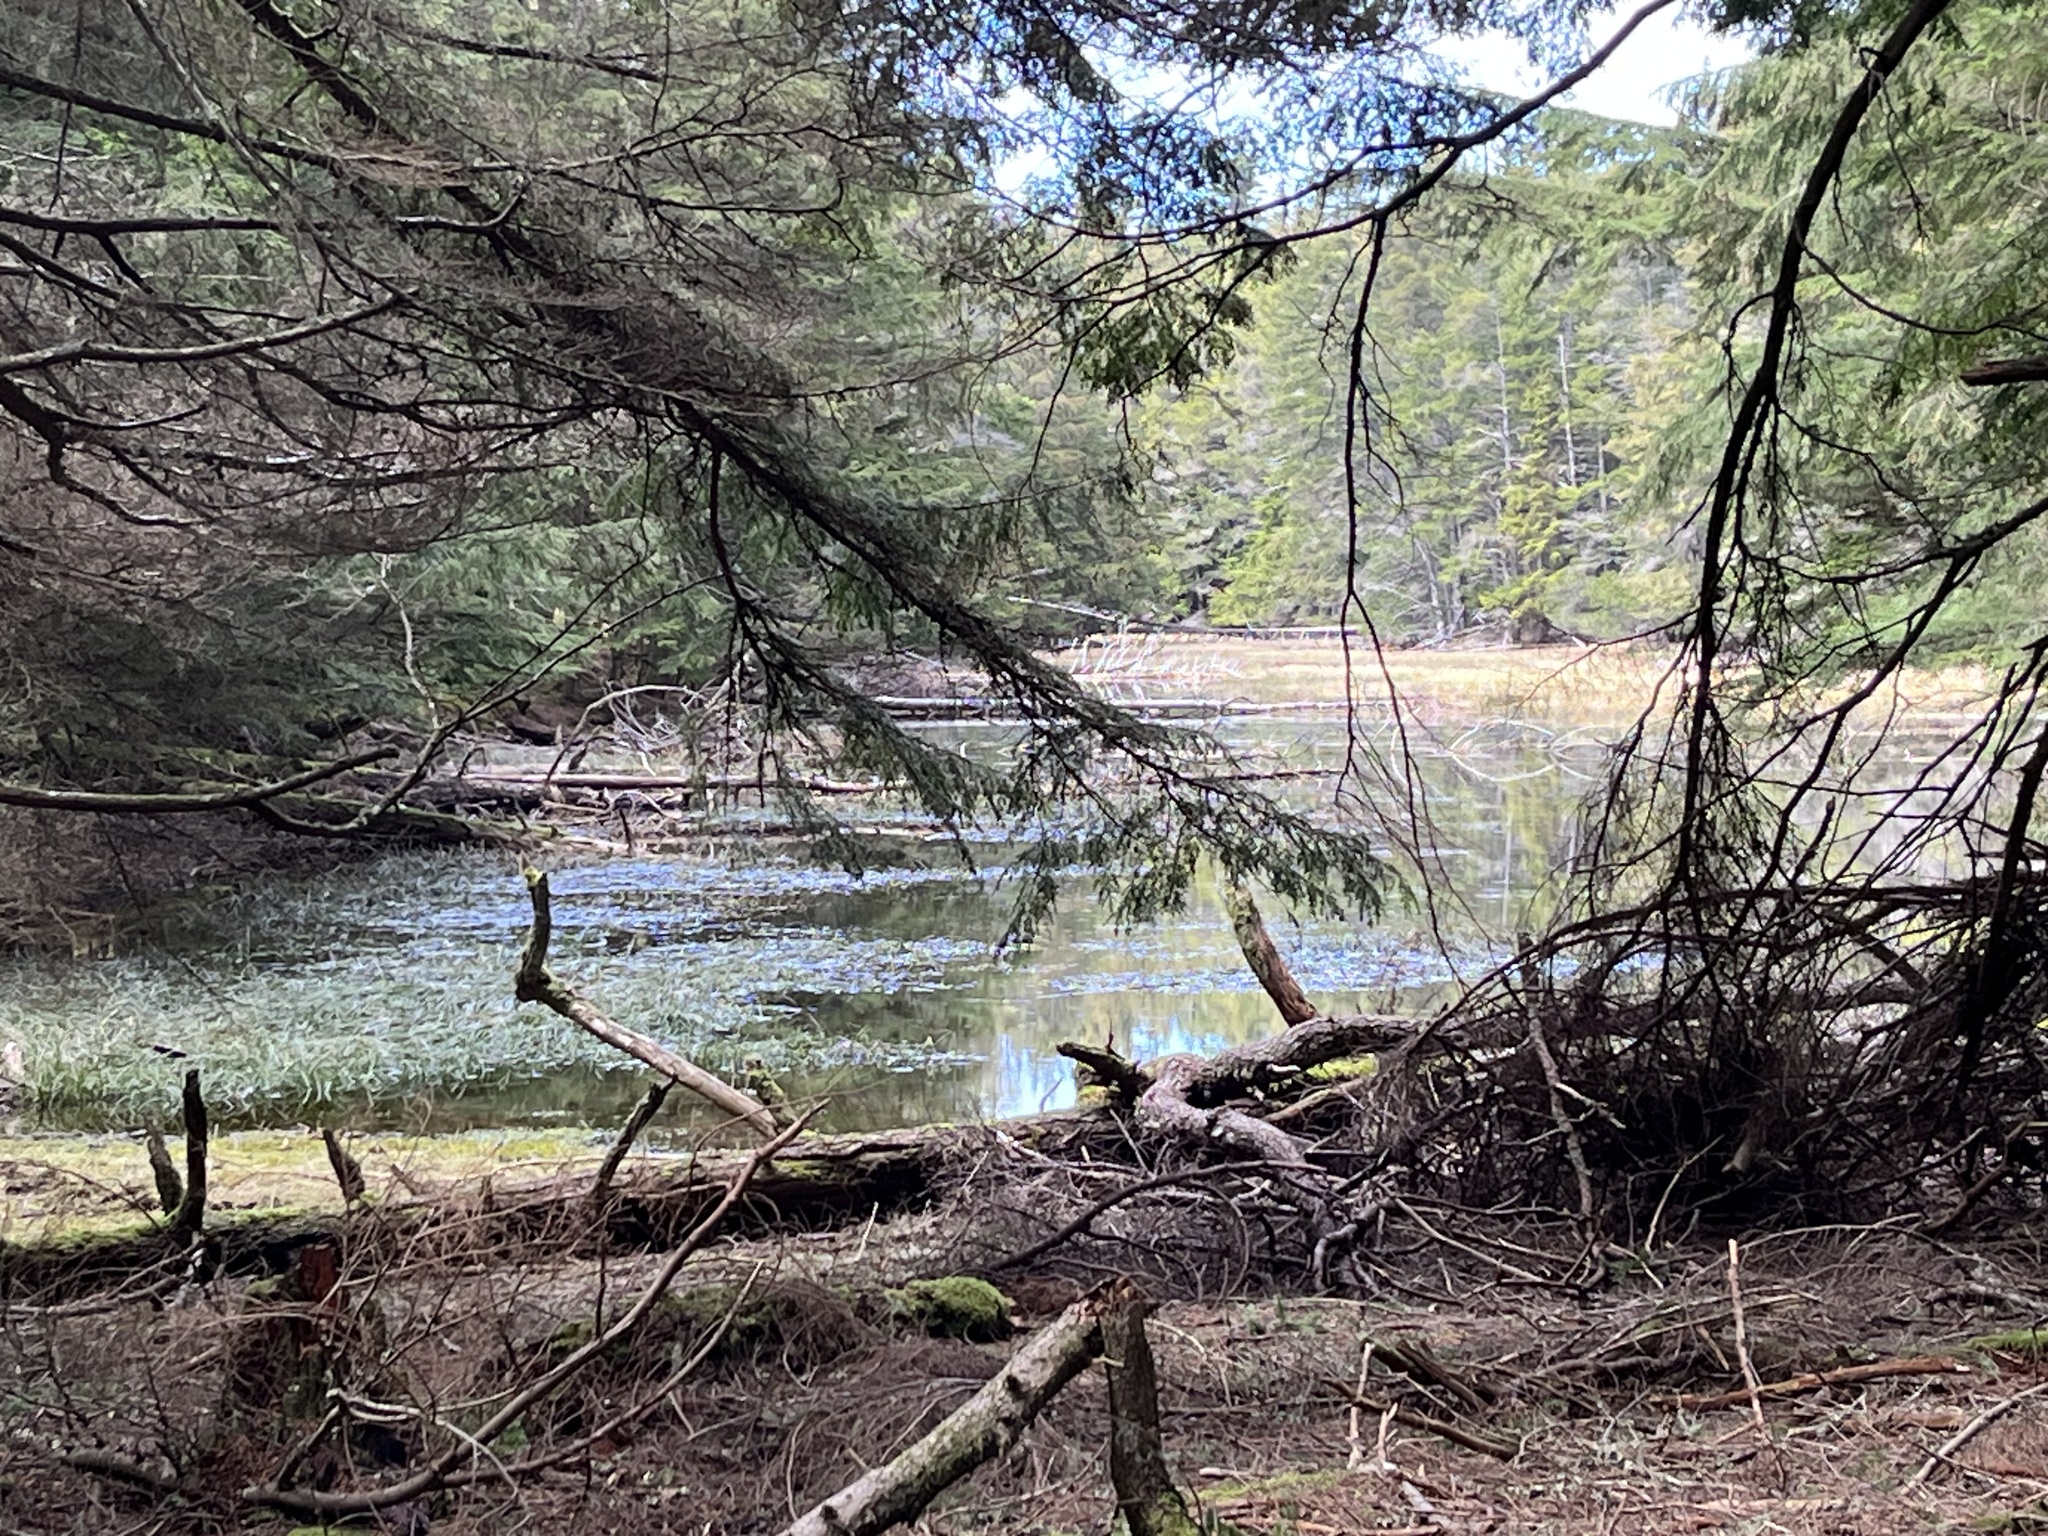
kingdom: Animalia
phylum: Chordata
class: Amphibia
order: Anura
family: Hylidae
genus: Pseudacris
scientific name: Pseudacris regilla
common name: Pacific chorus frog
